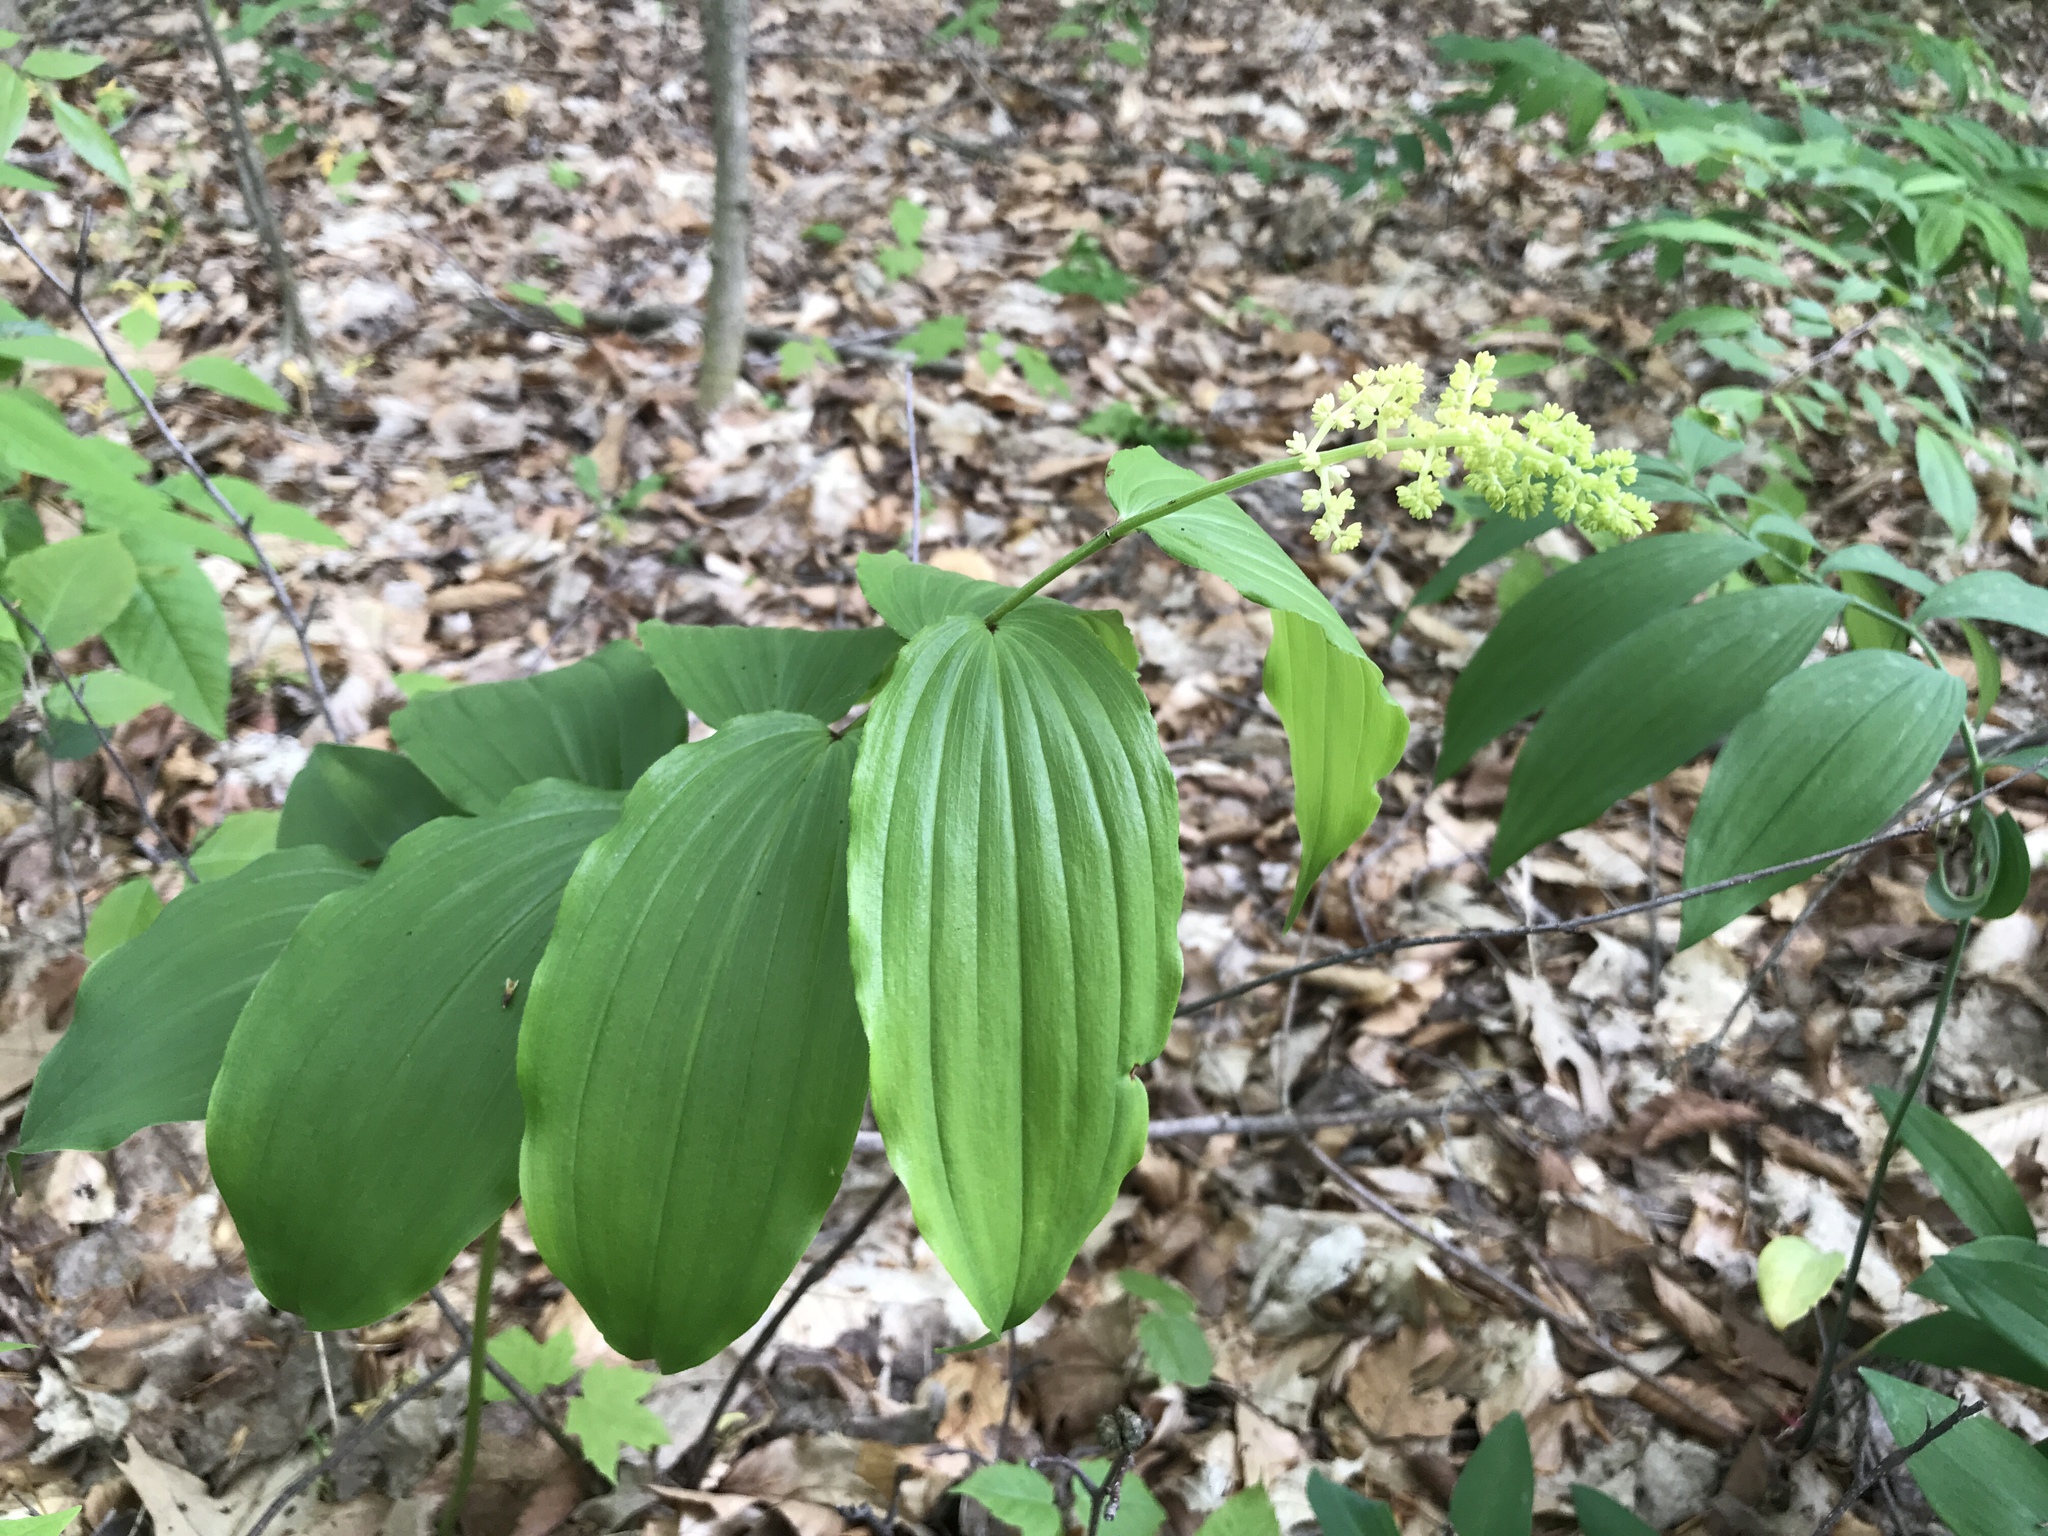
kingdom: Plantae
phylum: Tracheophyta
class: Liliopsida
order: Asparagales
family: Asparagaceae
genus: Maianthemum
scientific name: Maianthemum racemosum
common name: False spikenard
